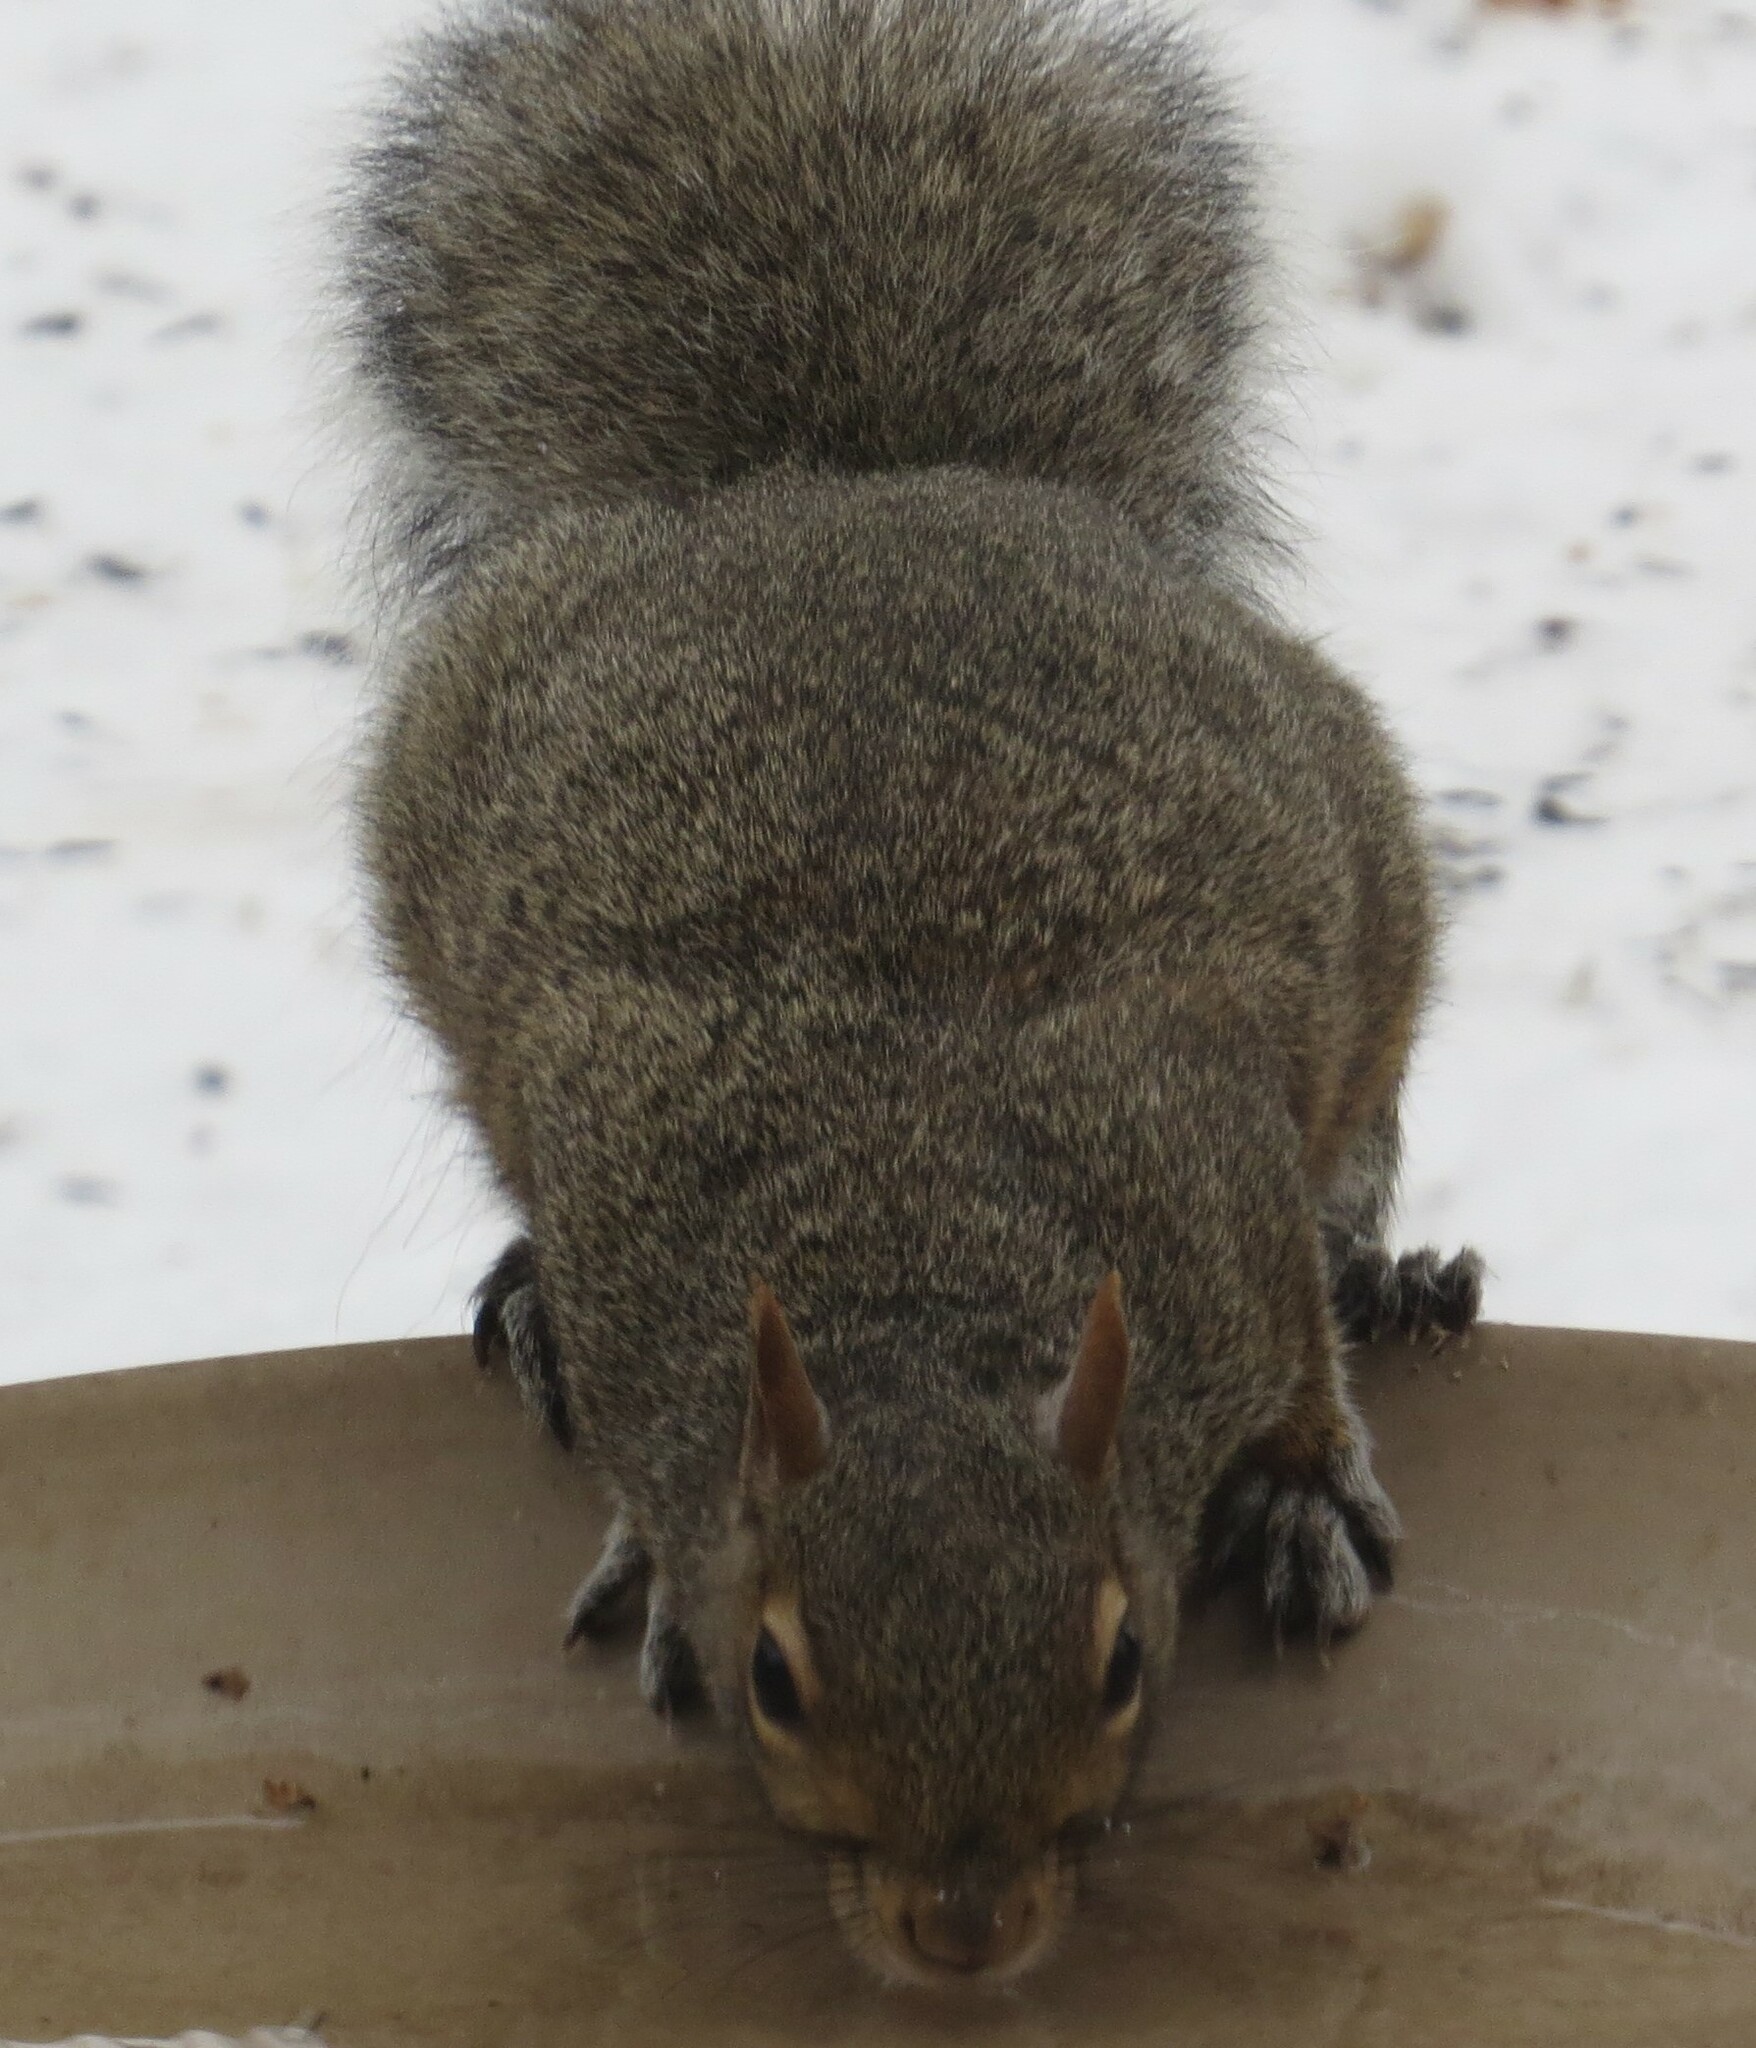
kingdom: Animalia
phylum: Chordata
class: Mammalia
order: Rodentia
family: Sciuridae
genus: Sciurus
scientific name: Sciurus carolinensis
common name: Eastern gray squirrel
